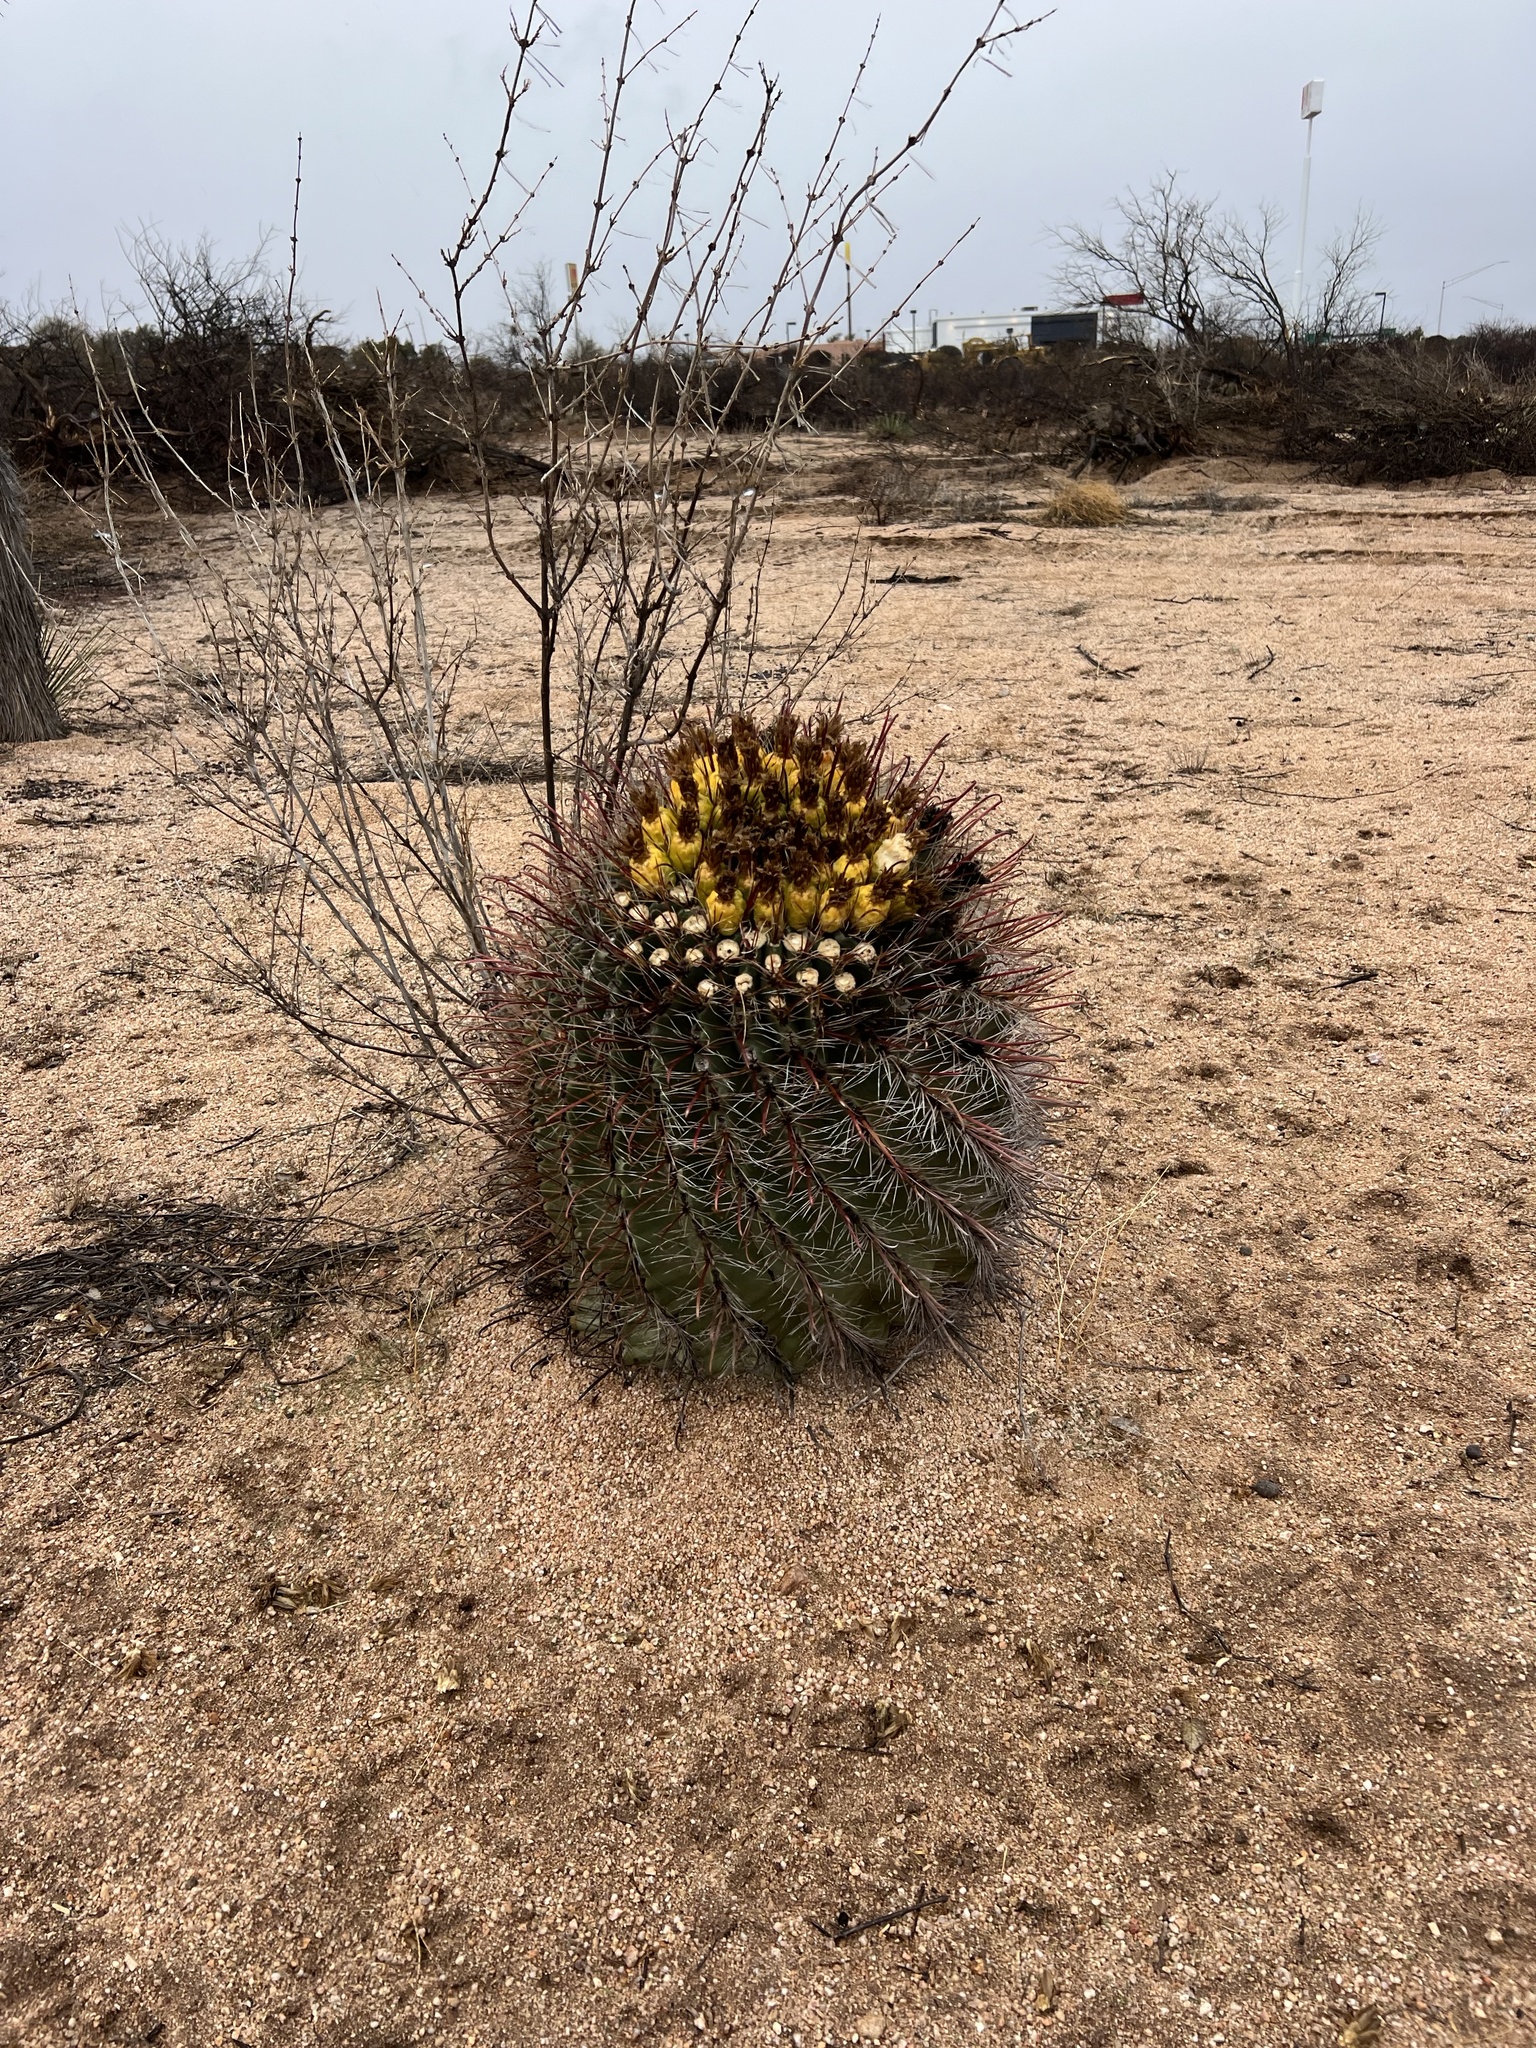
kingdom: Plantae
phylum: Tracheophyta
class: Magnoliopsida
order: Caryophyllales
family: Cactaceae
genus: Ferocactus
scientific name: Ferocactus wislizeni
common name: Candy barrel cactus
